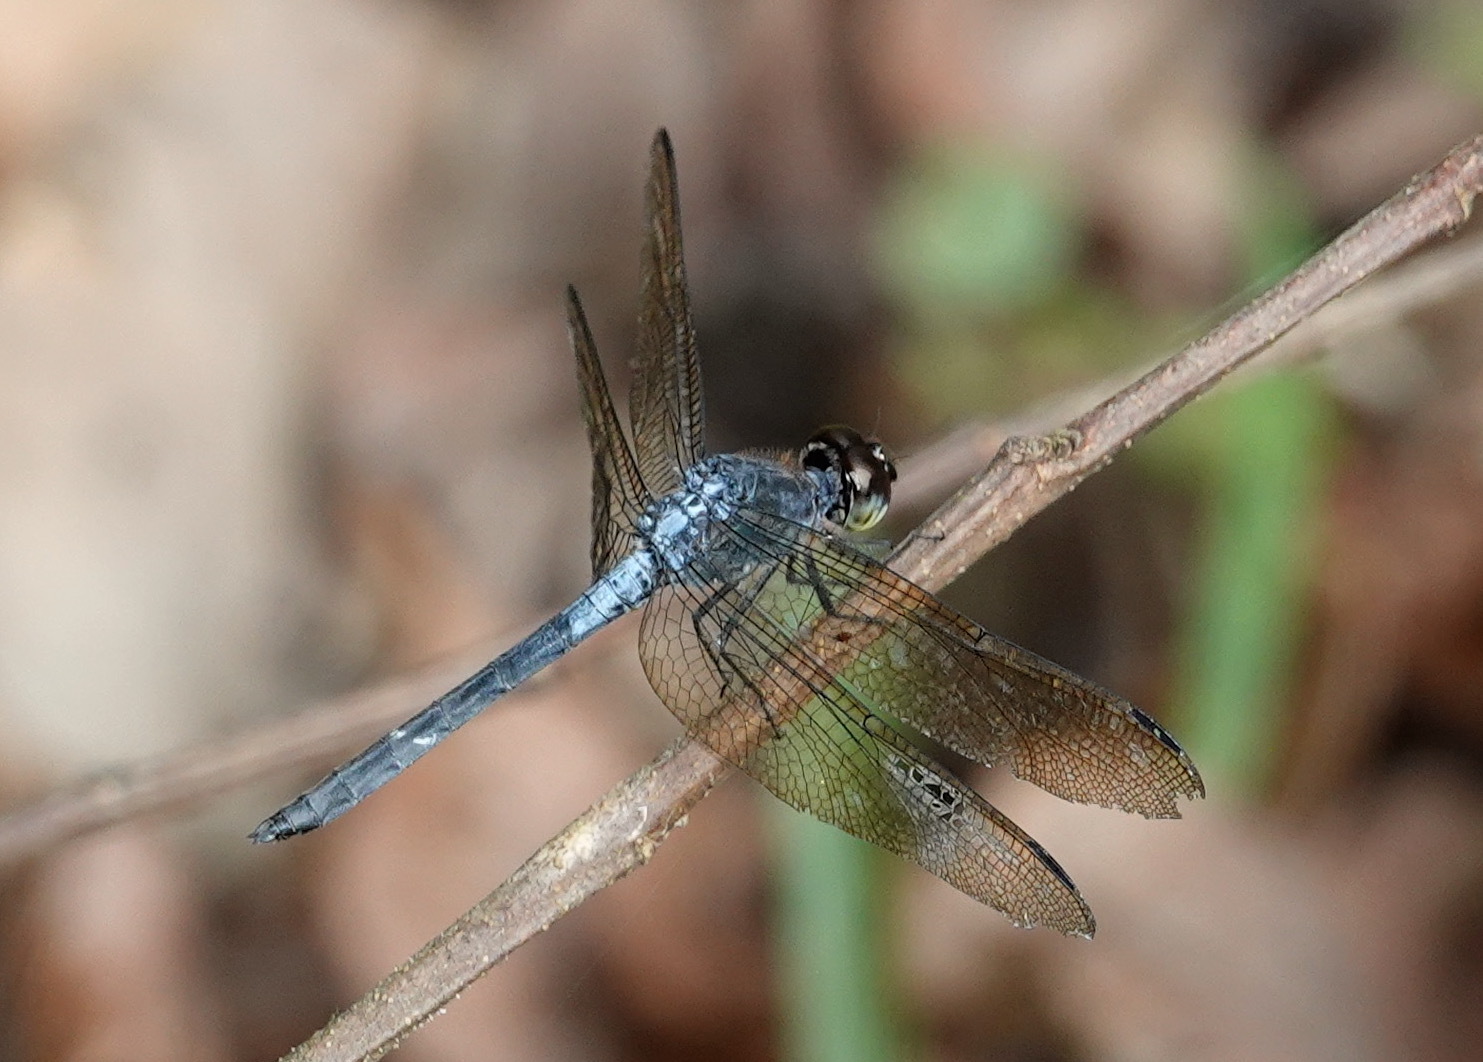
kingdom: Animalia
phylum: Arthropoda
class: Insecta
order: Odonata
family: Libellulidae
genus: Cratilla
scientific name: Cratilla lineata
